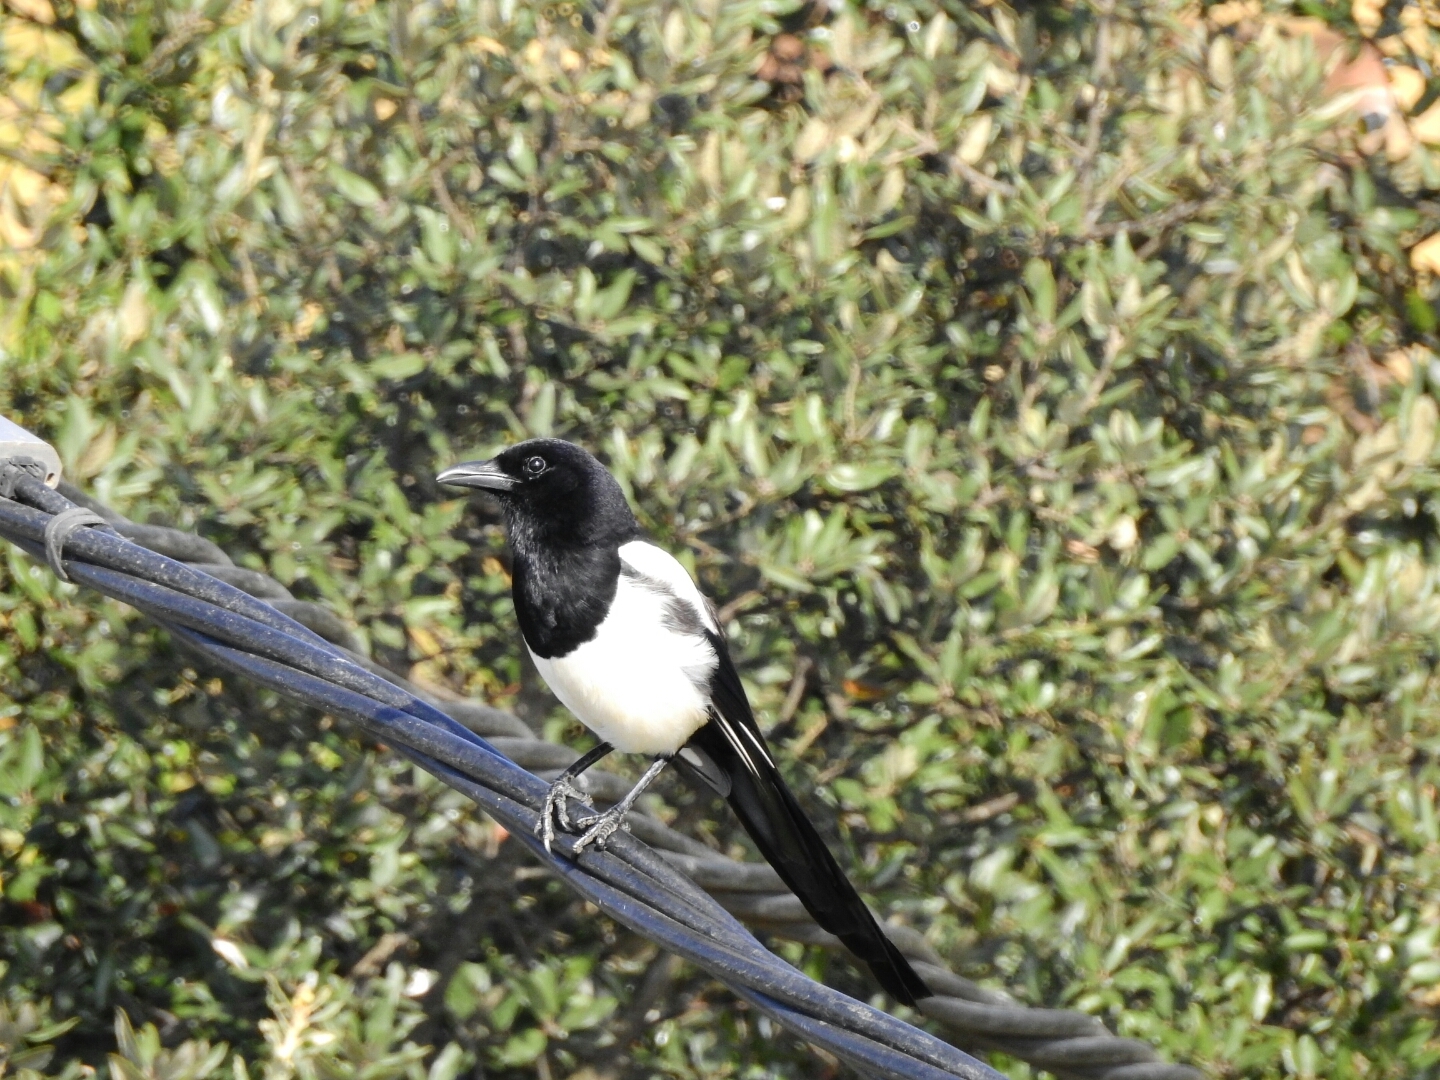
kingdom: Animalia
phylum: Chordata
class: Aves
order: Passeriformes
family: Corvidae
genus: Pica
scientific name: Pica pica
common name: Eurasian magpie
